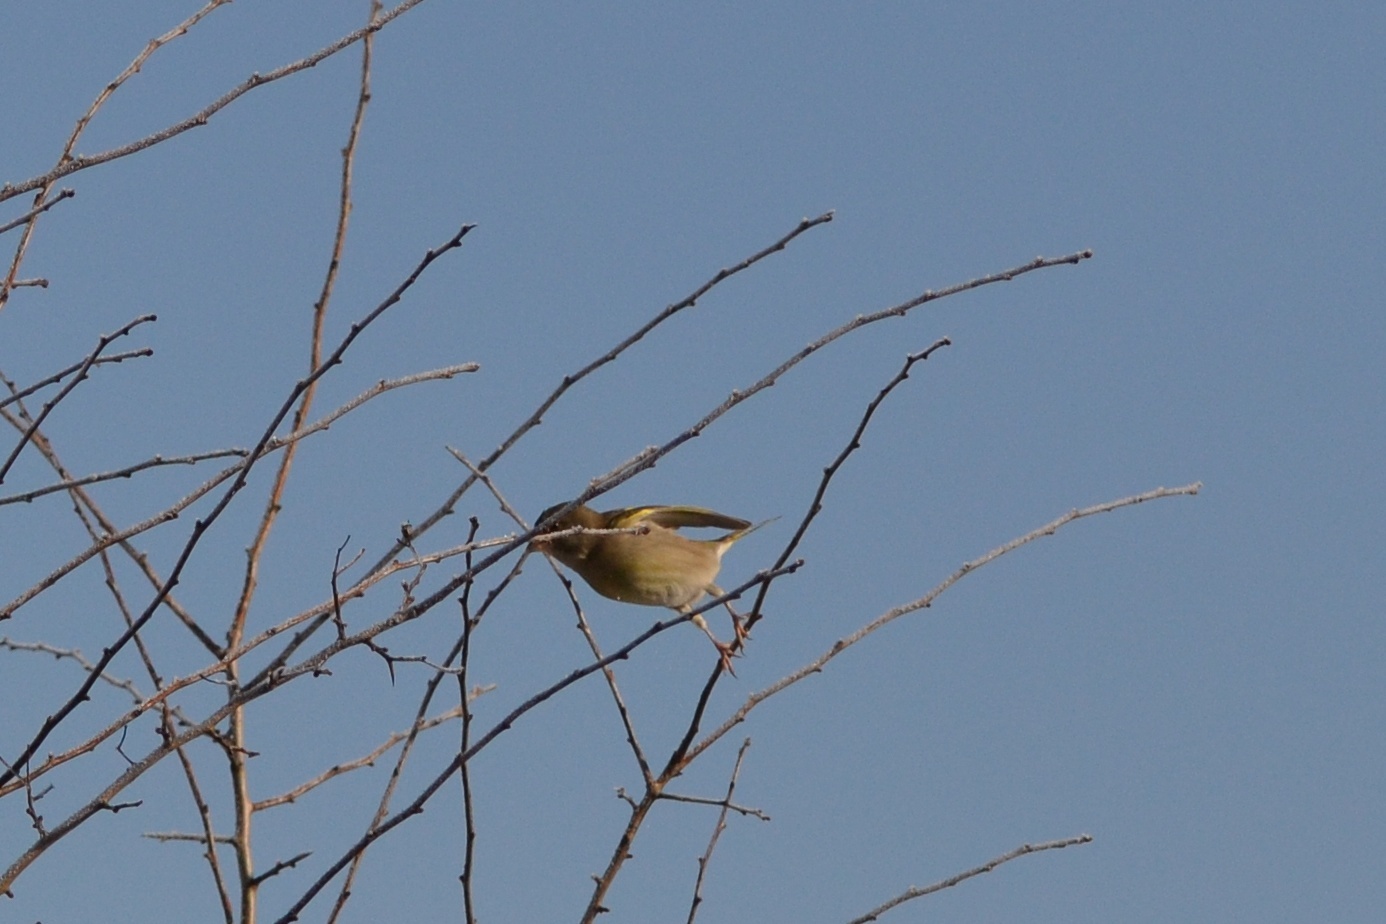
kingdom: Plantae
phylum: Tracheophyta
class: Liliopsida
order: Poales
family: Poaceae
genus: Chloris
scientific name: Chloris chloris
